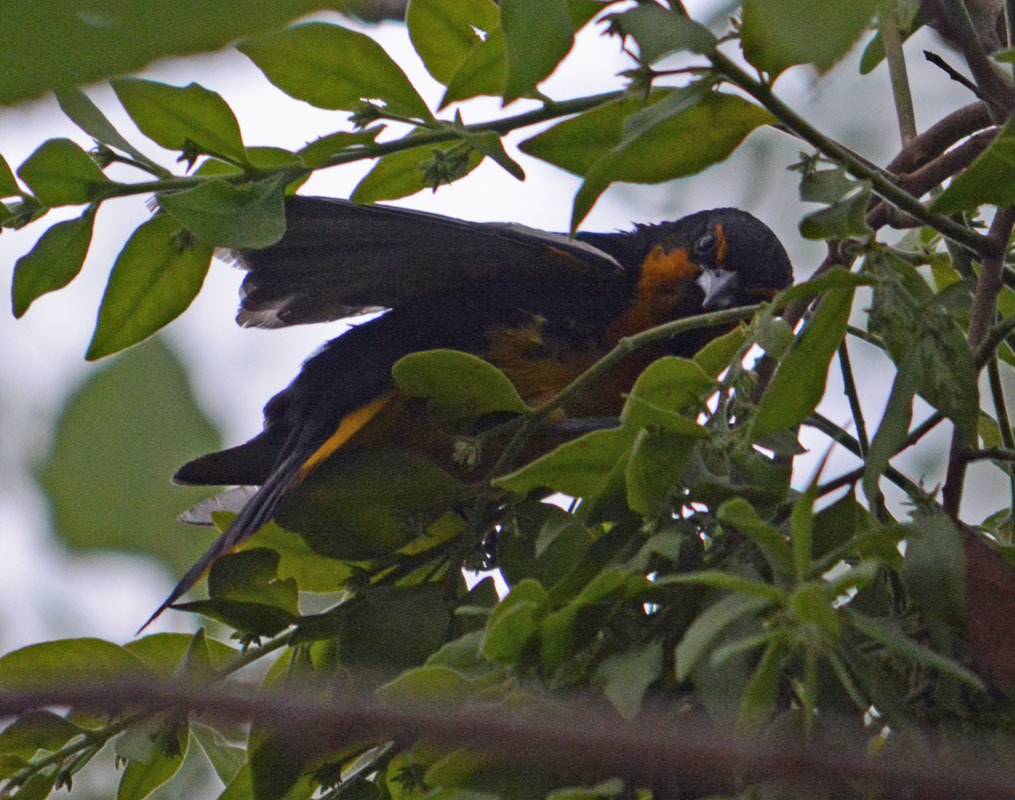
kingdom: Animalia
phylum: Chordata
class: Aves
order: Passeriformes
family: Icteridae
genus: Icterus
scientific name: Icterus abeillei
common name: Black-backed oriole
